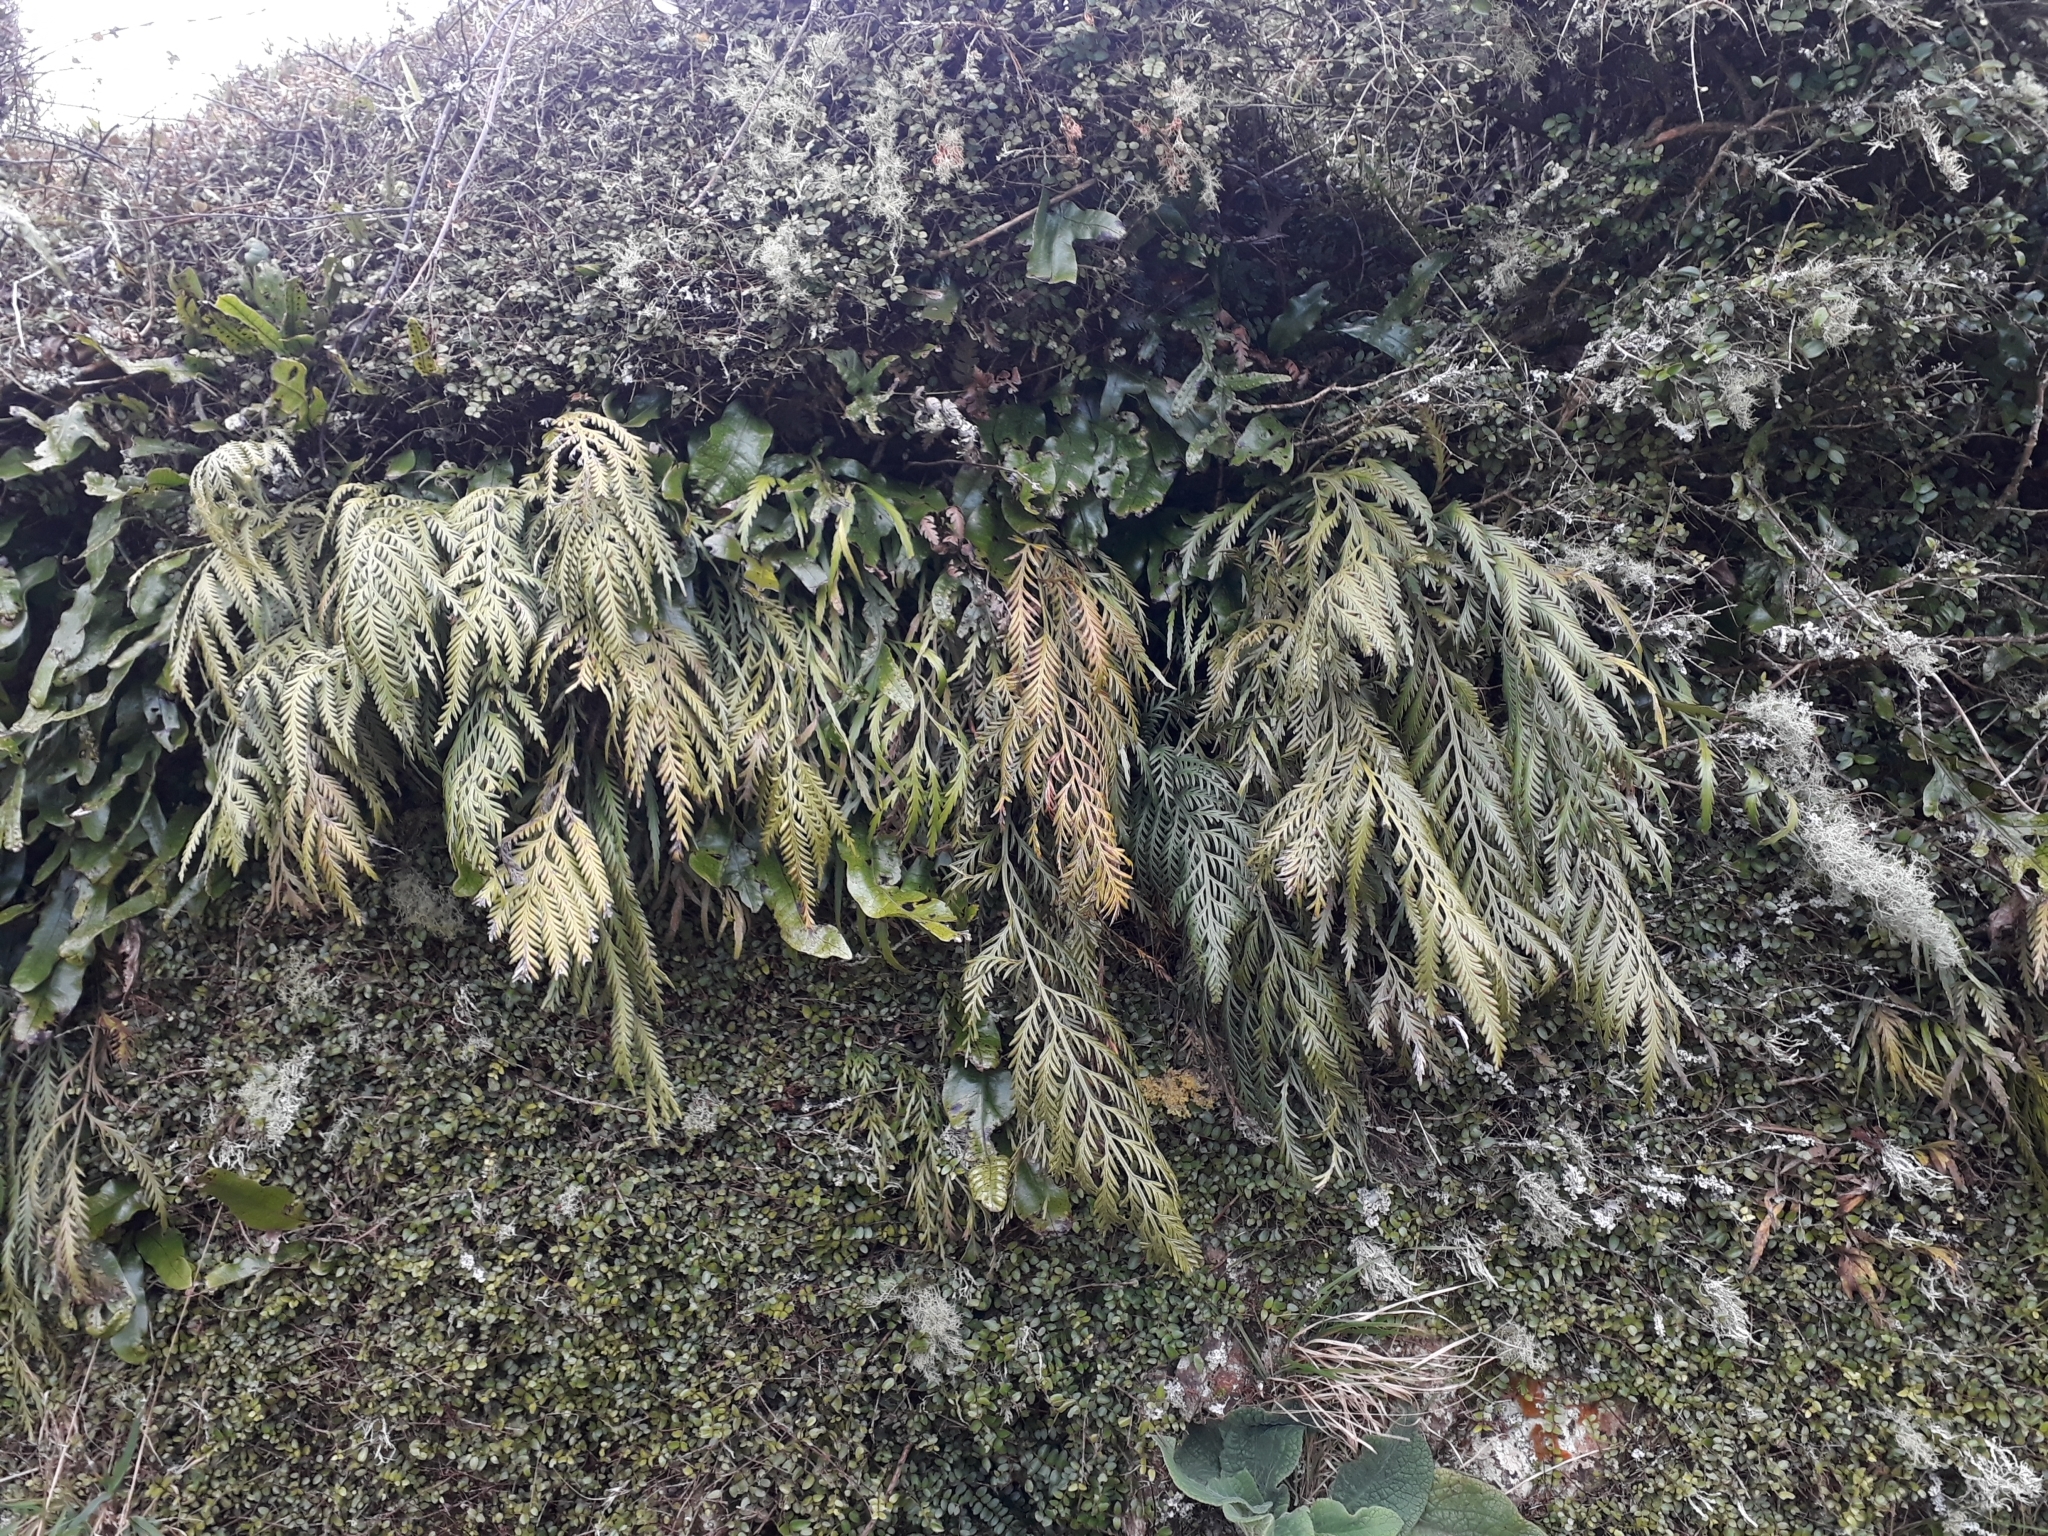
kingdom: Plantae
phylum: Tracheophyta
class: Polypodiopsida
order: Polypodiales
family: Aspleniaceae
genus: Asplenium
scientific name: Asplenium flaccidum
